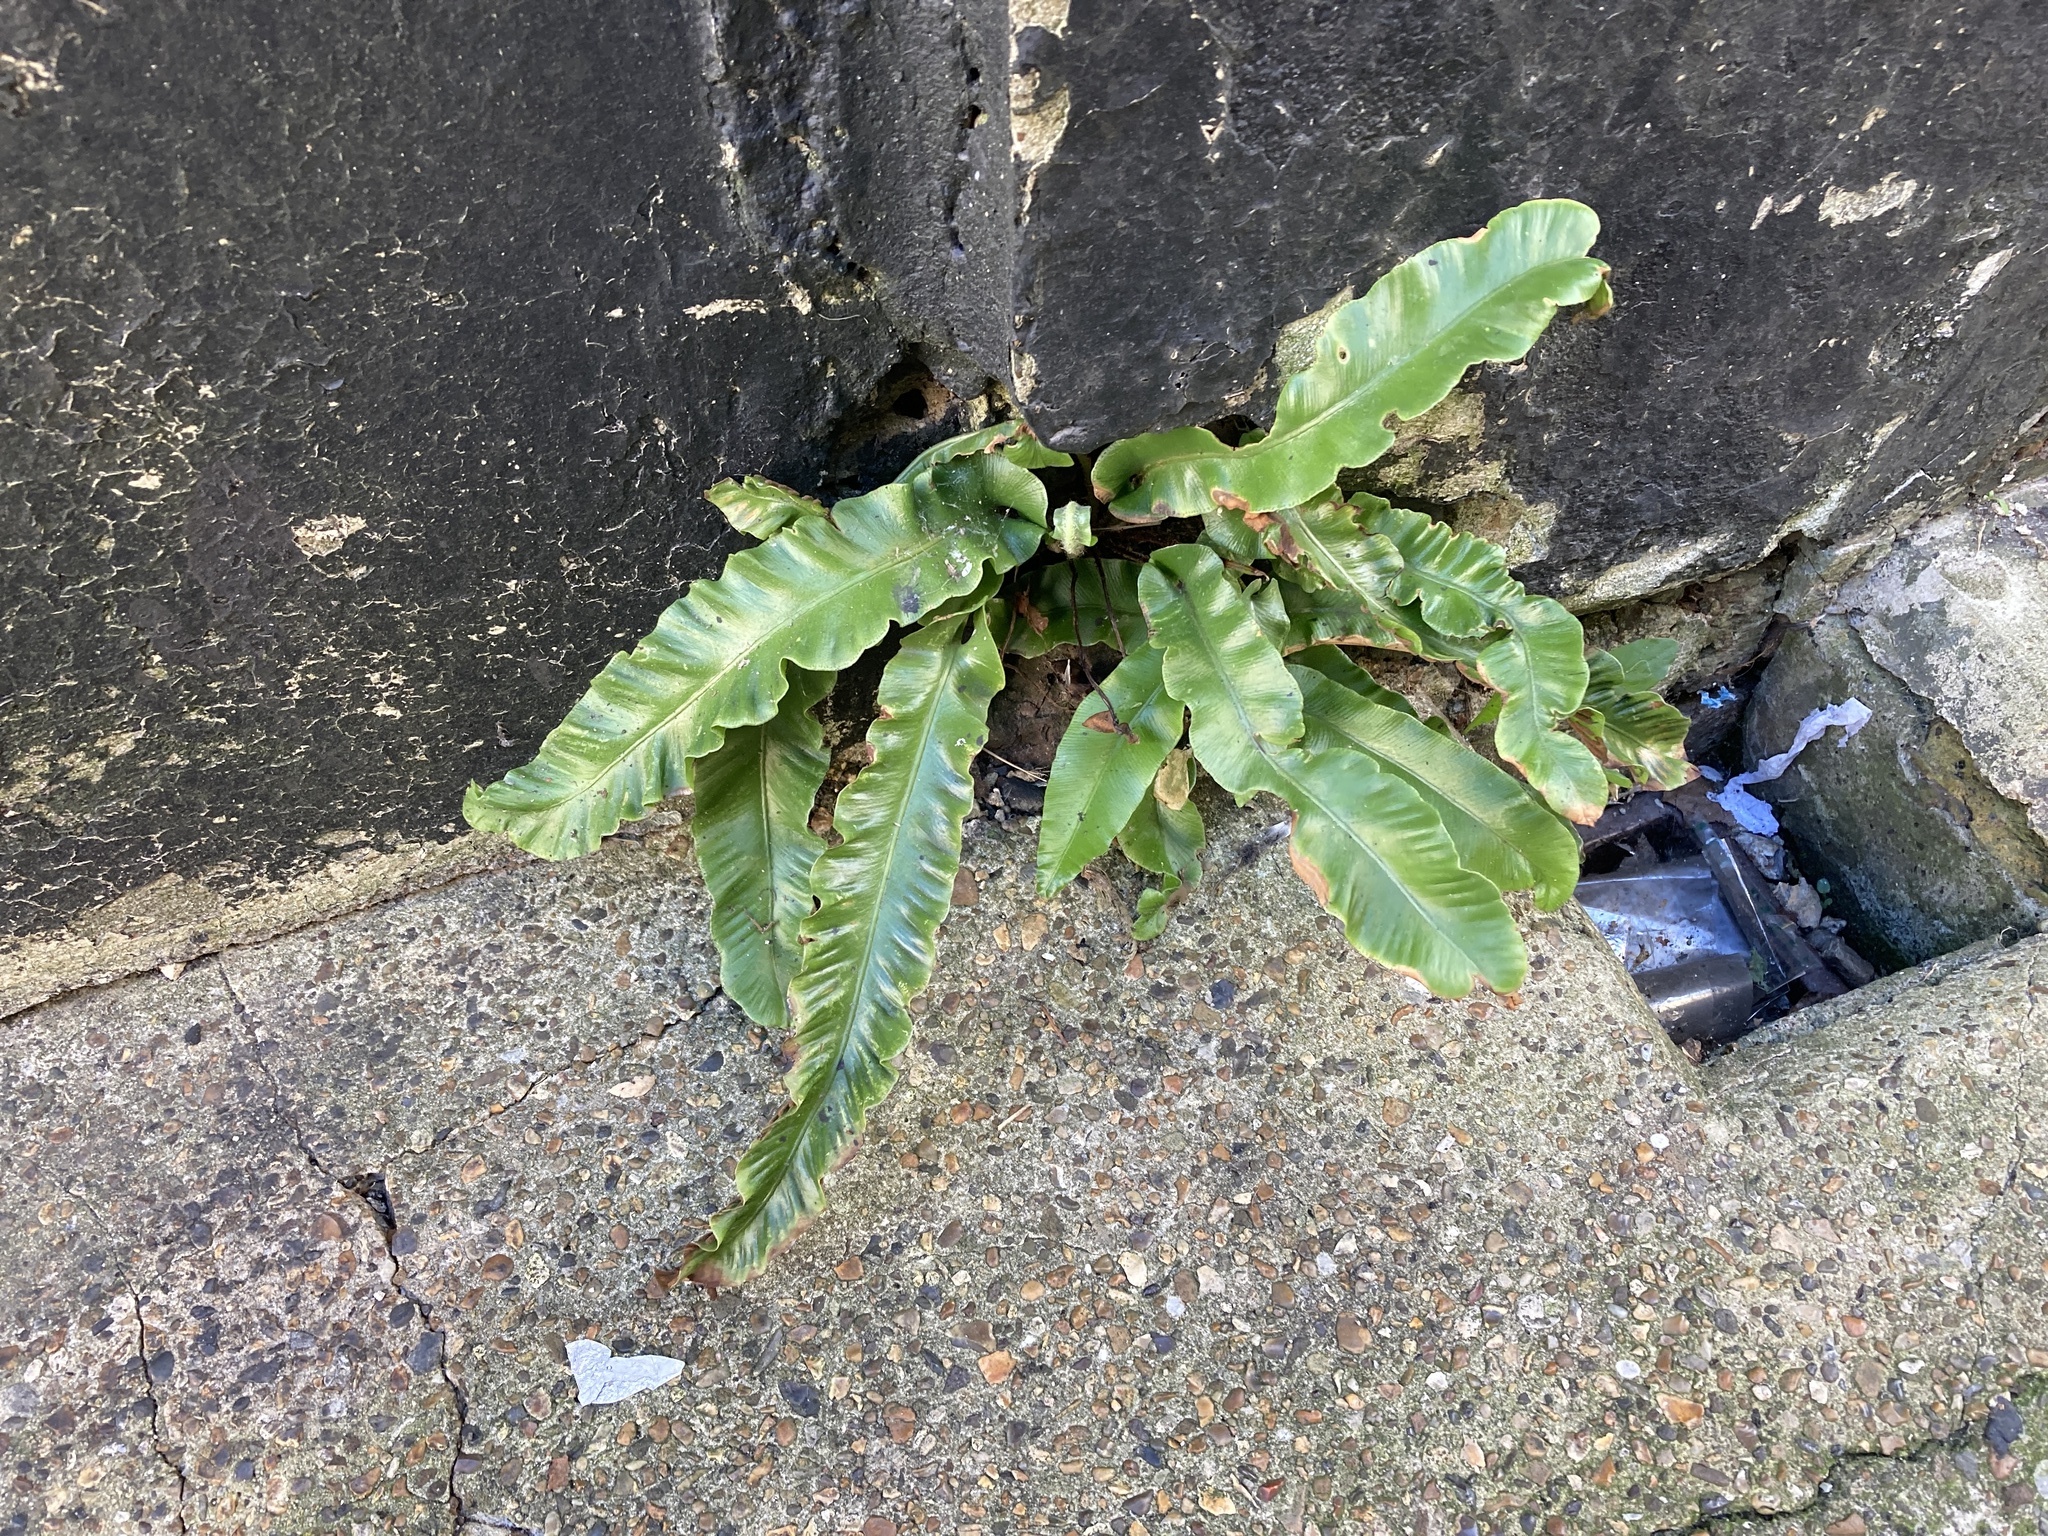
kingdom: Plantae
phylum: Tracheophyta
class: Polypodiopsida
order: Polypodiales
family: Aspleniaceae
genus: Asplenium
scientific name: Asplenium scolopendrium
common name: Hart's-tongue fern
